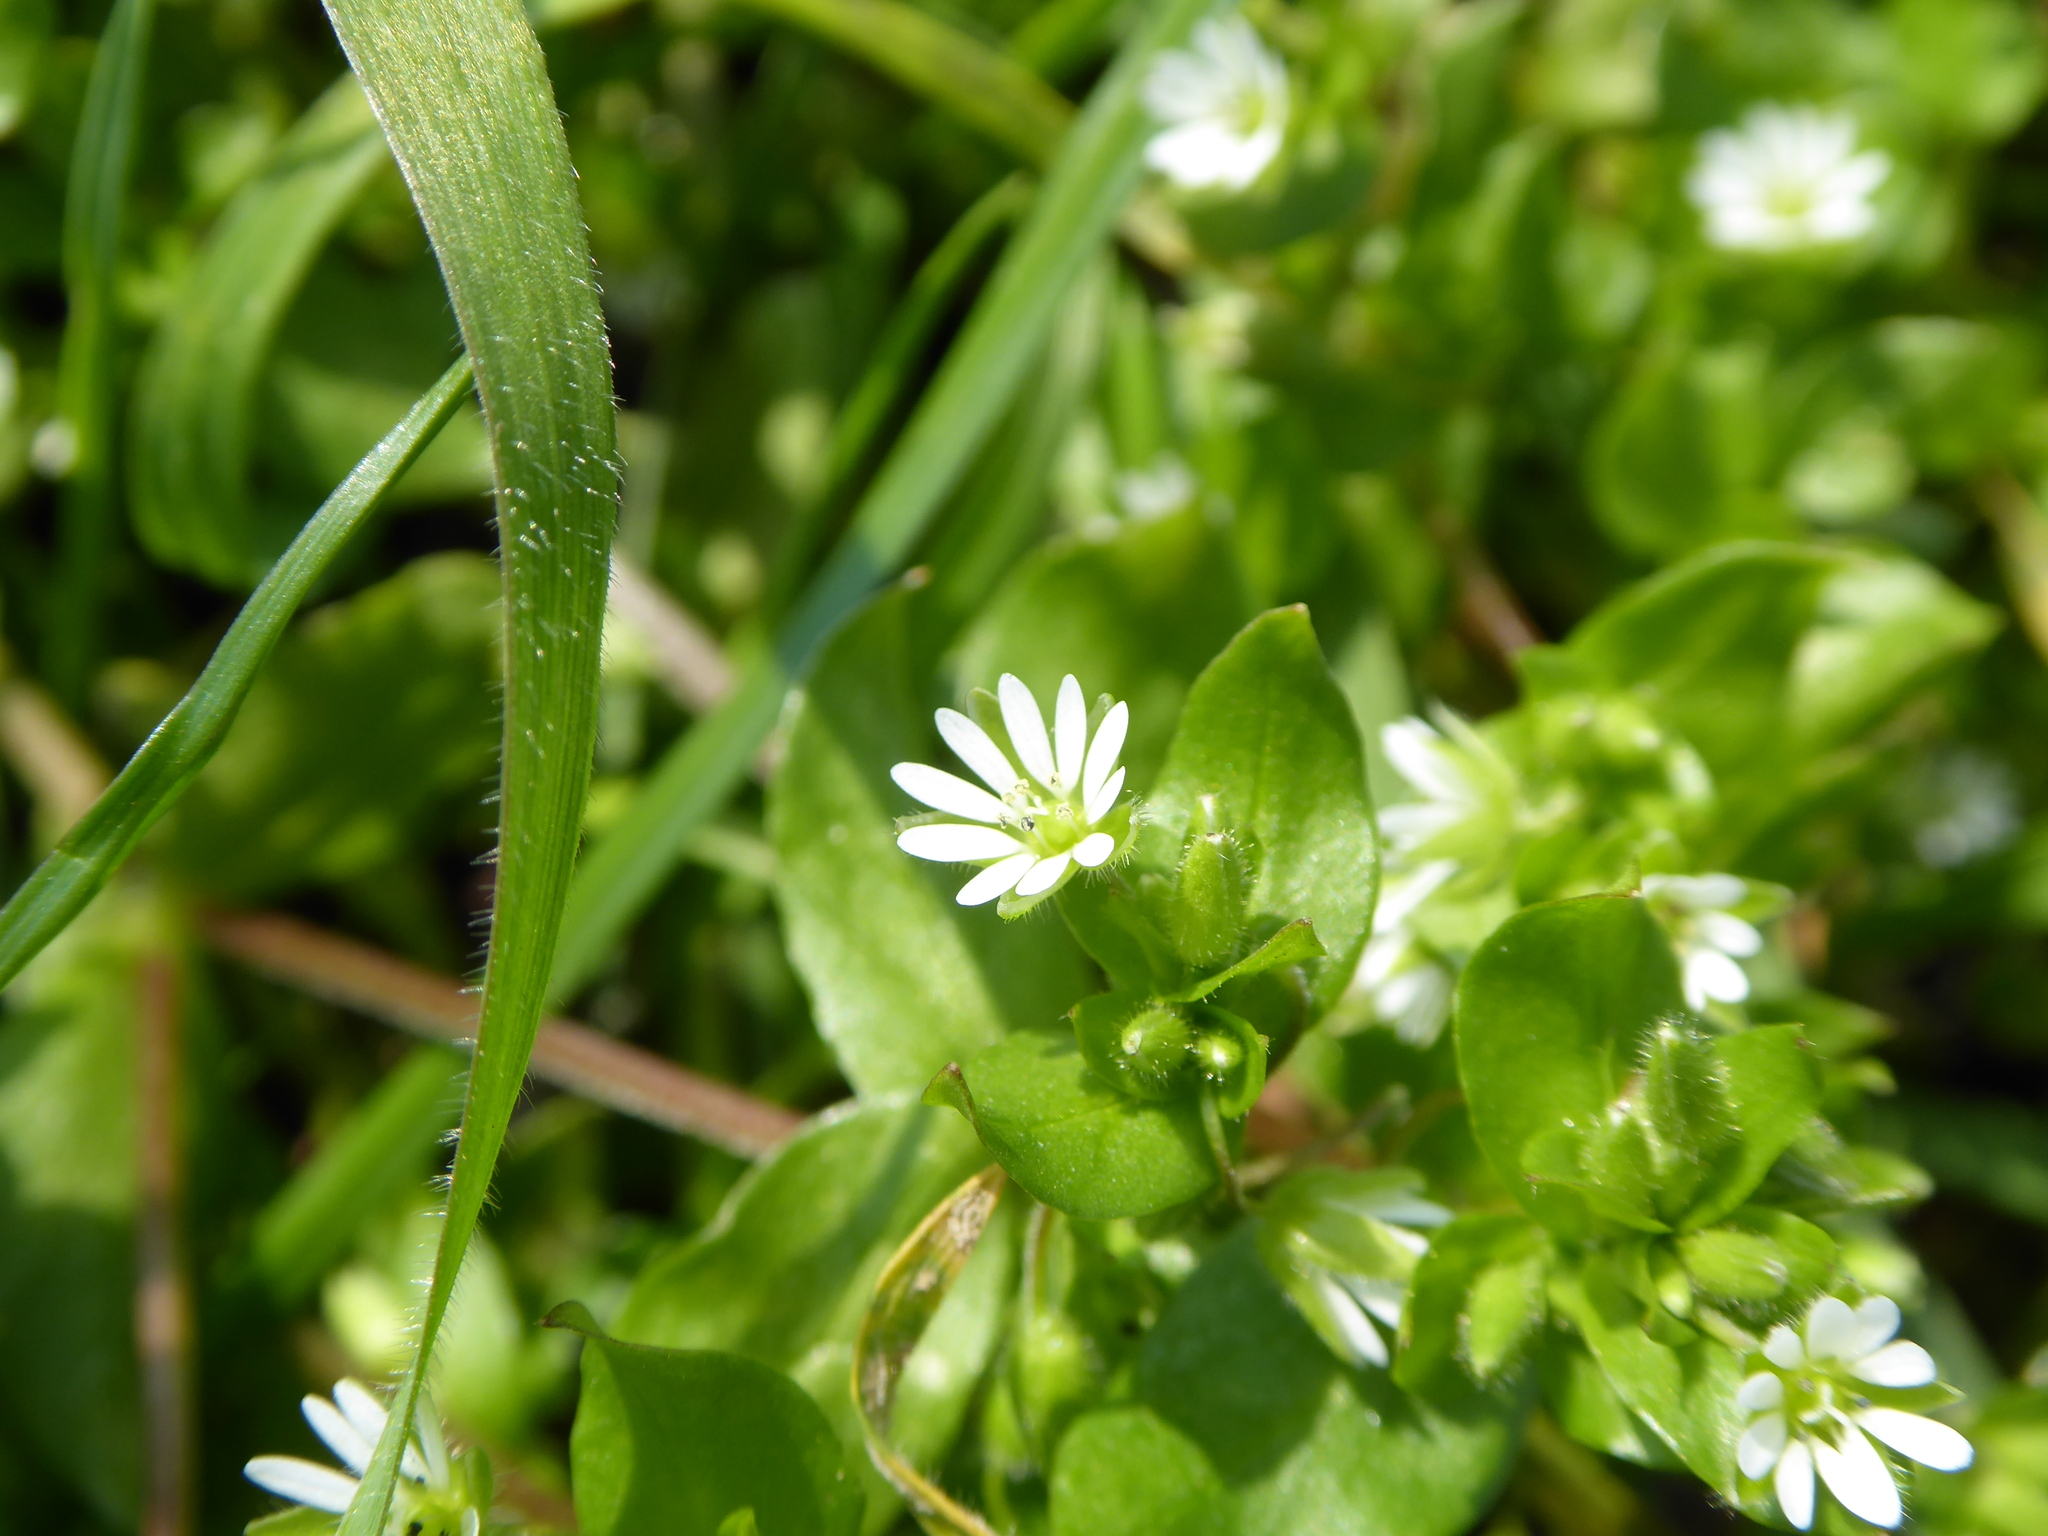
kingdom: Plantae
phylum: Tracheophyta
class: Magnoliopsida
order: Caryophyllales
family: Caryophyllaceae
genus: Stellaria
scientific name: Stellaria media
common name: Common chickweed
